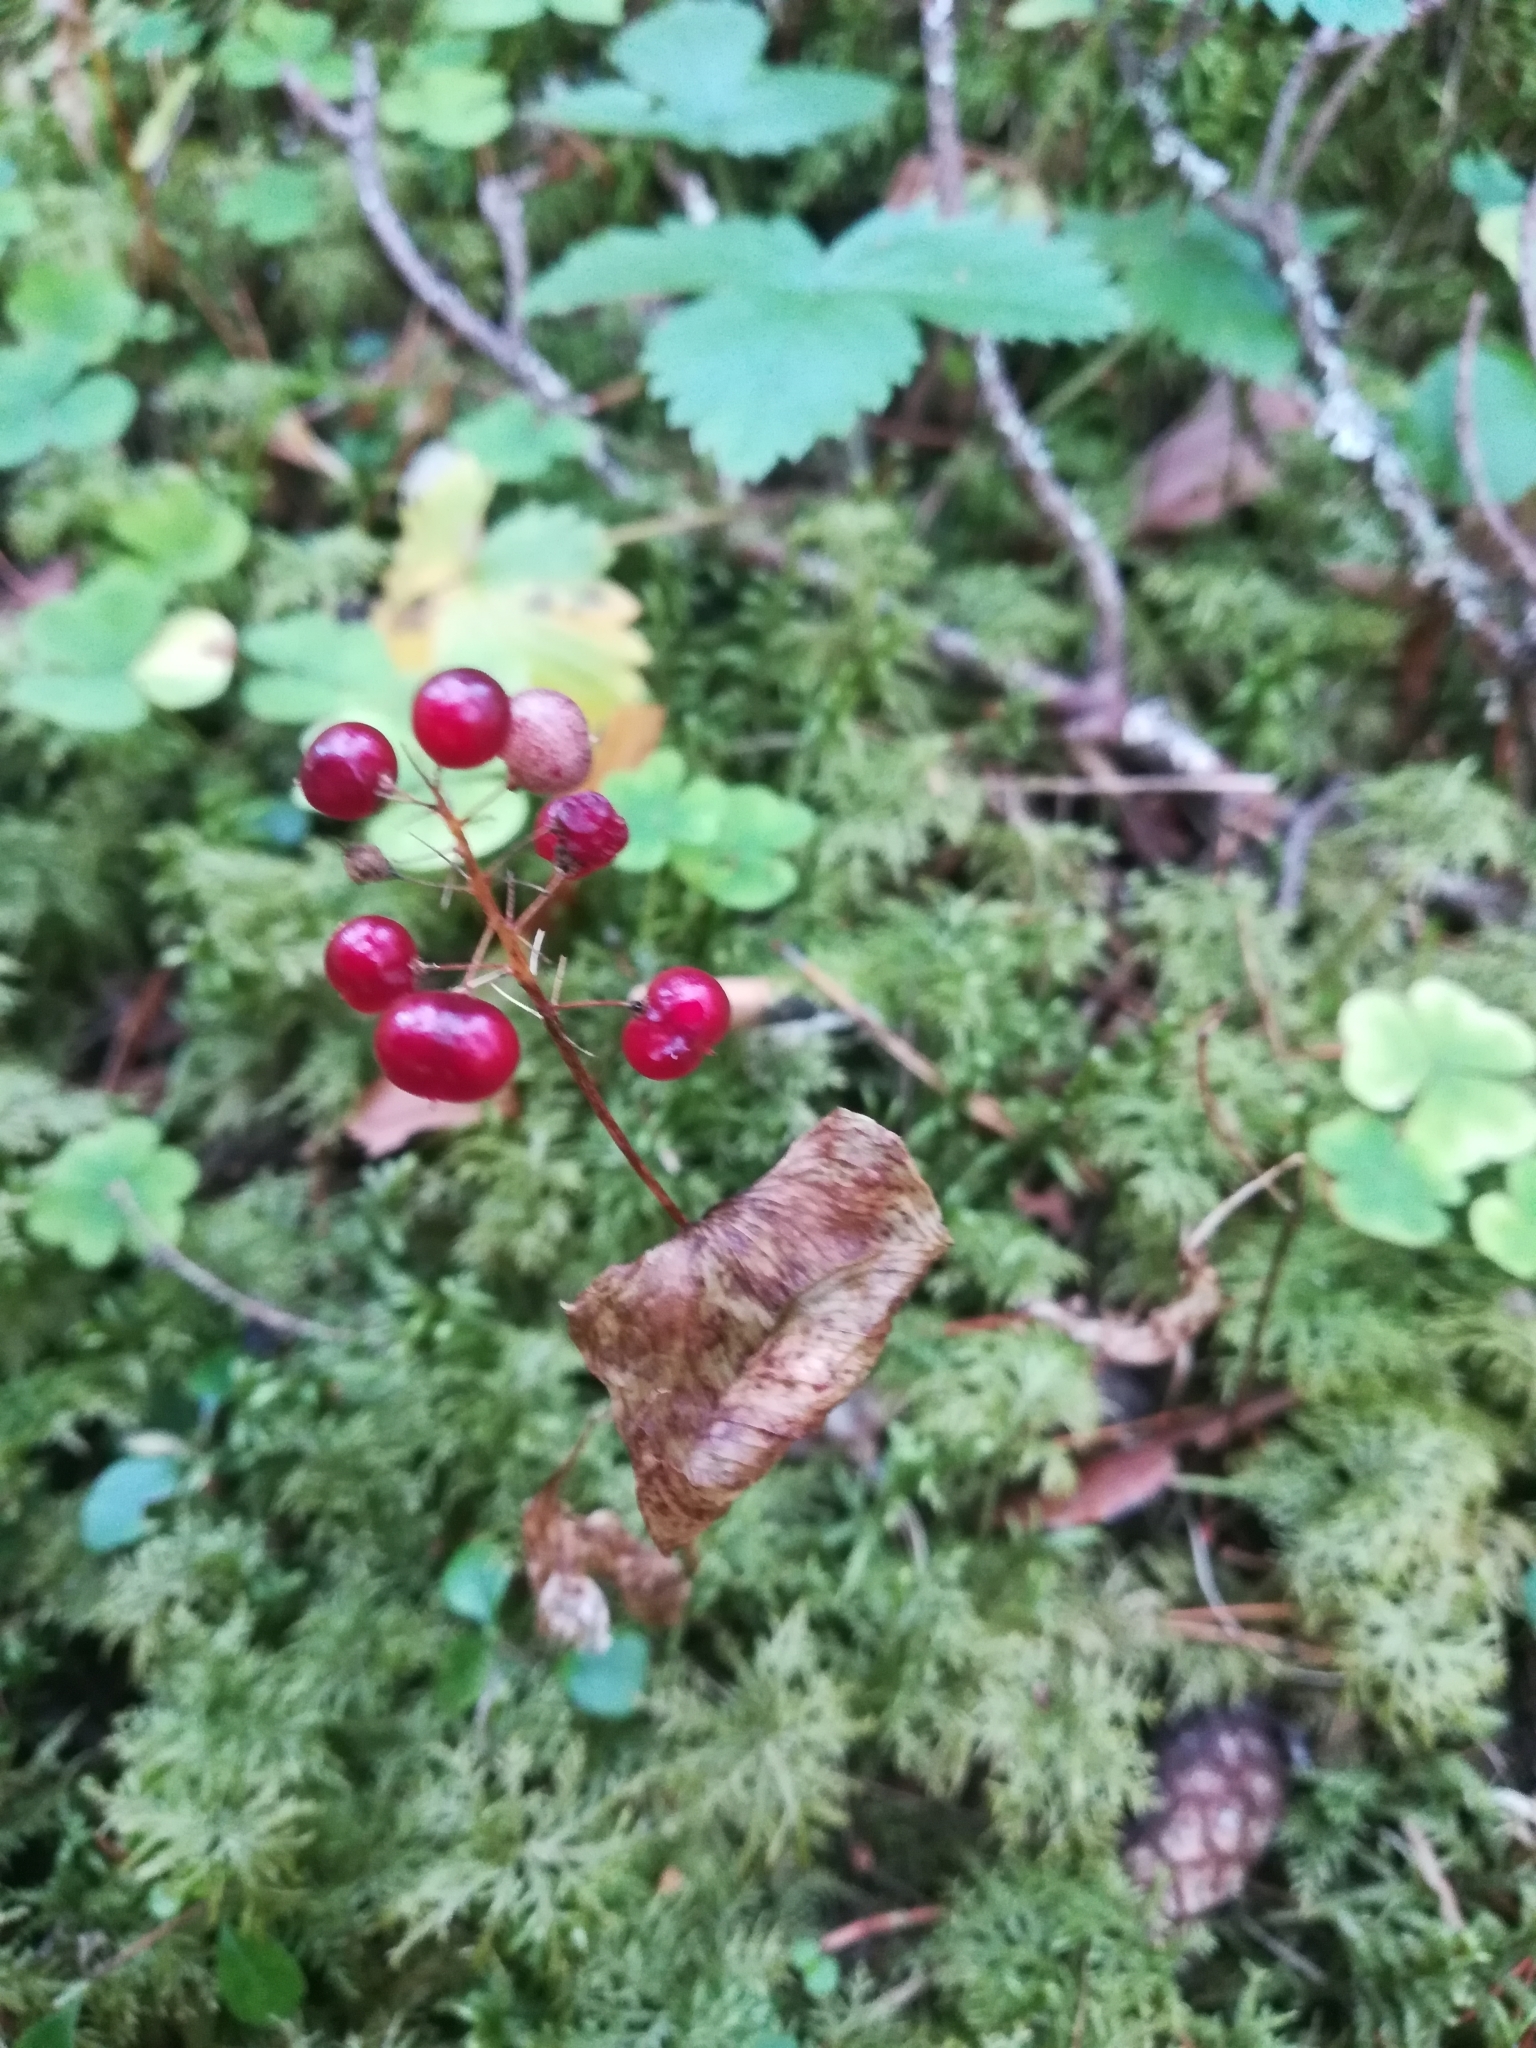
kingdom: Plantae
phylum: Tracheophyta
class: Liliopsida
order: Asparagales
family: Asparagaceae
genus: Maianthemum
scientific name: Maianthemum bifolium
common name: May lily
